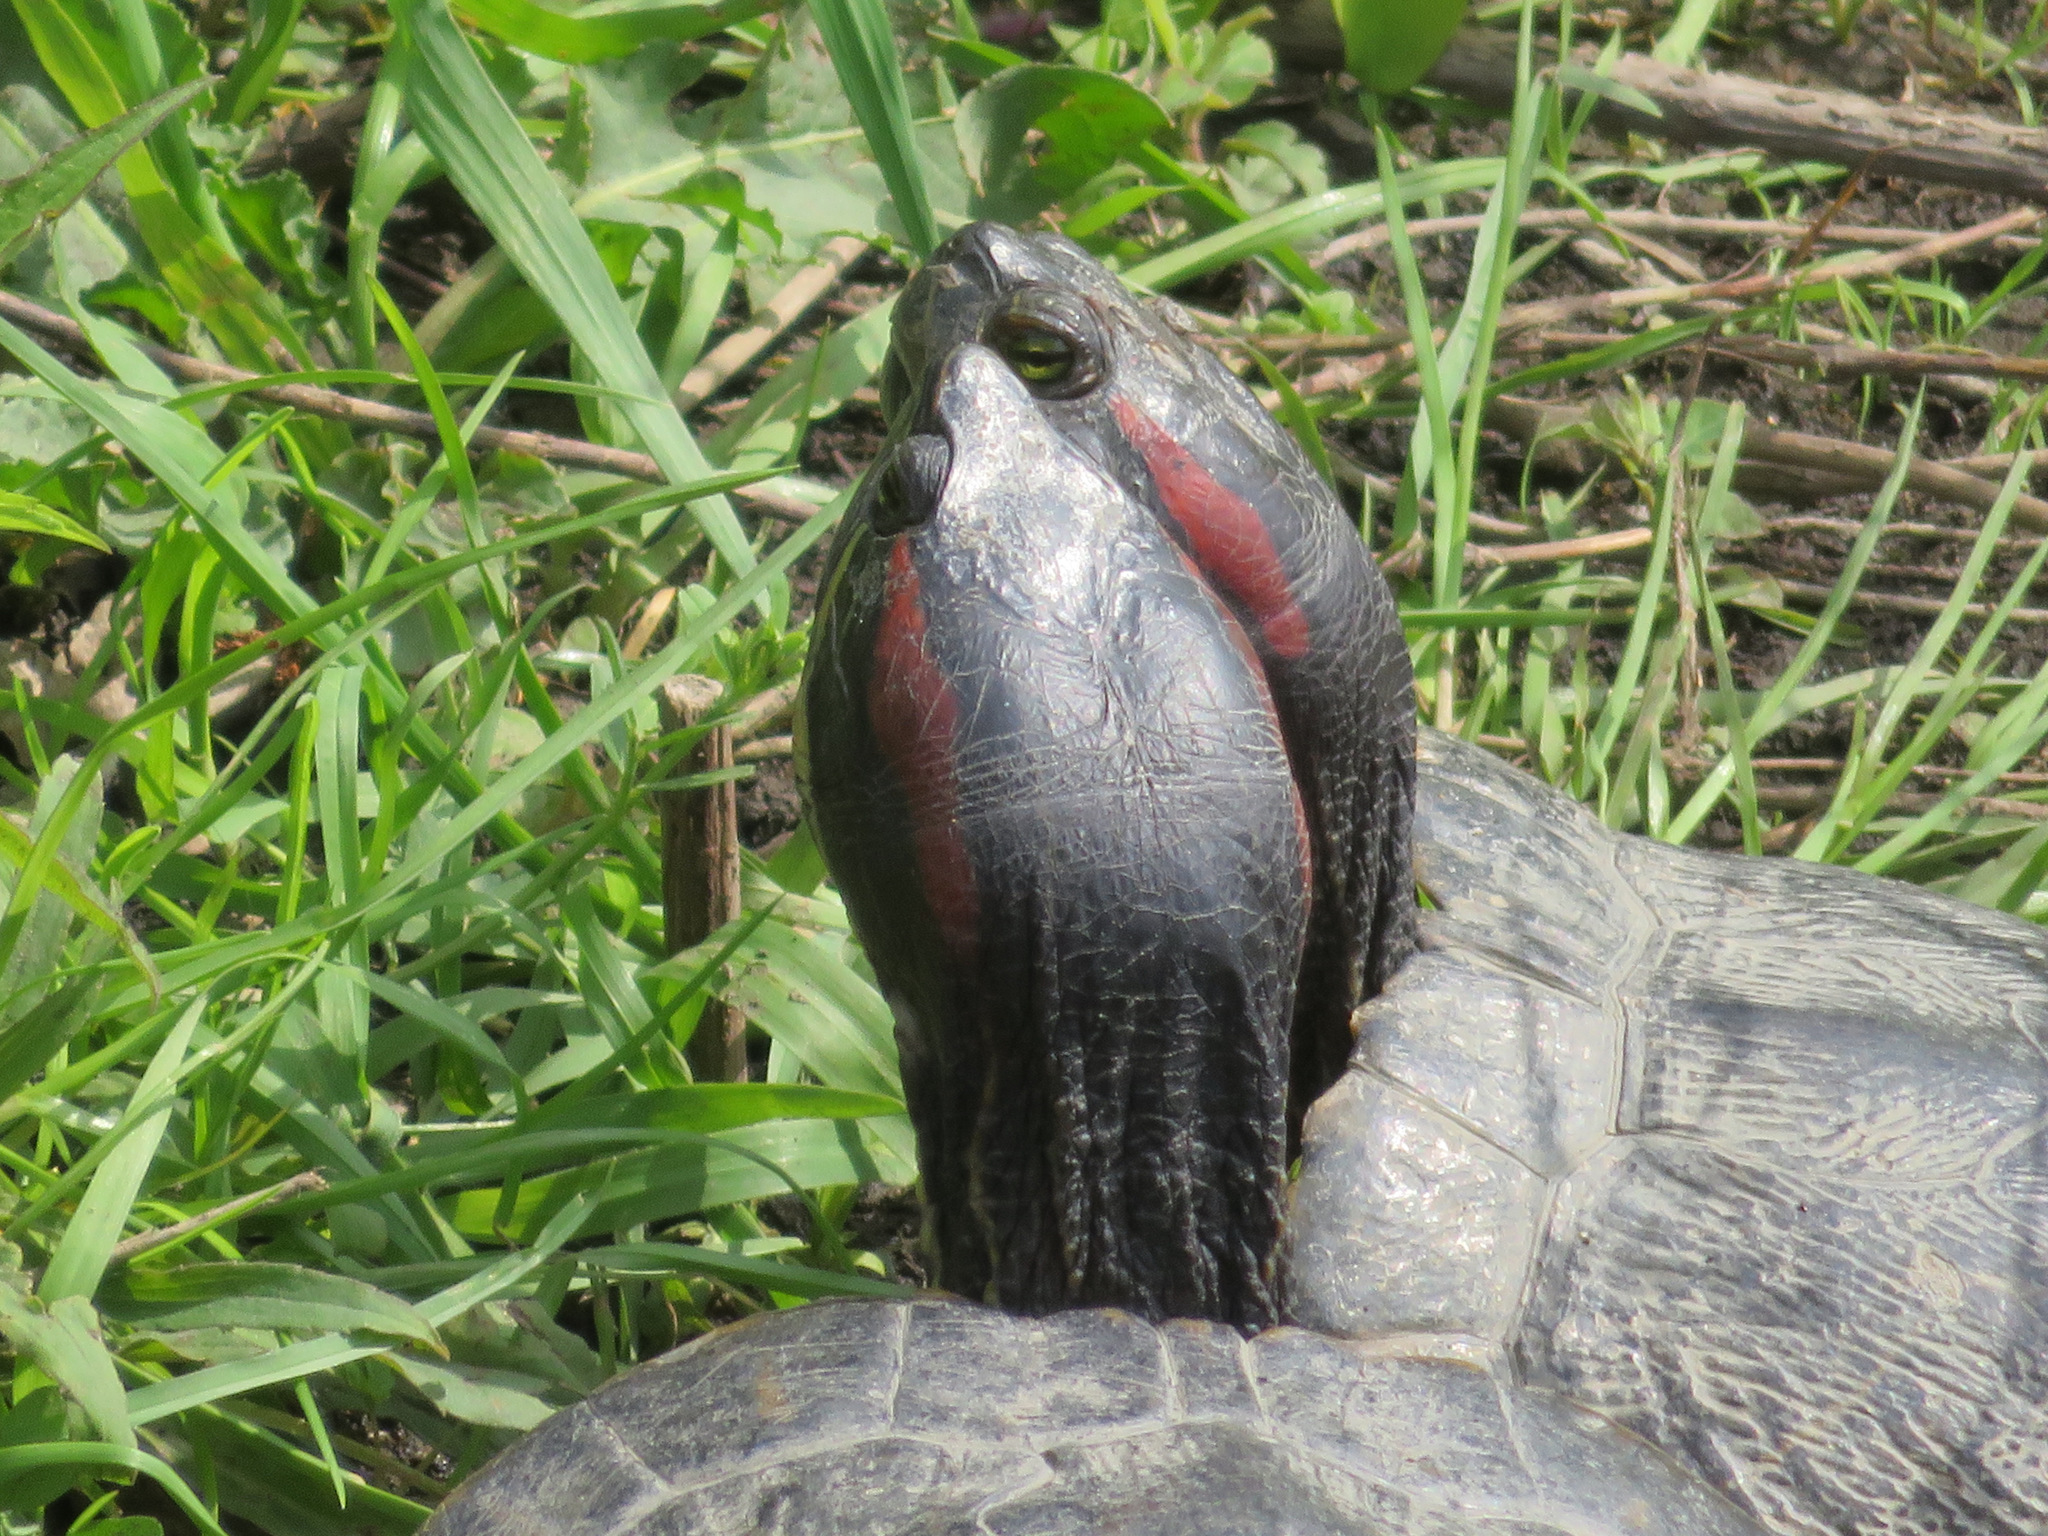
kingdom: Animalia
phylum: Chordata
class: Testudines
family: Emydidae
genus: Trachemys
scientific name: Trachemys scripta
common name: Slider
